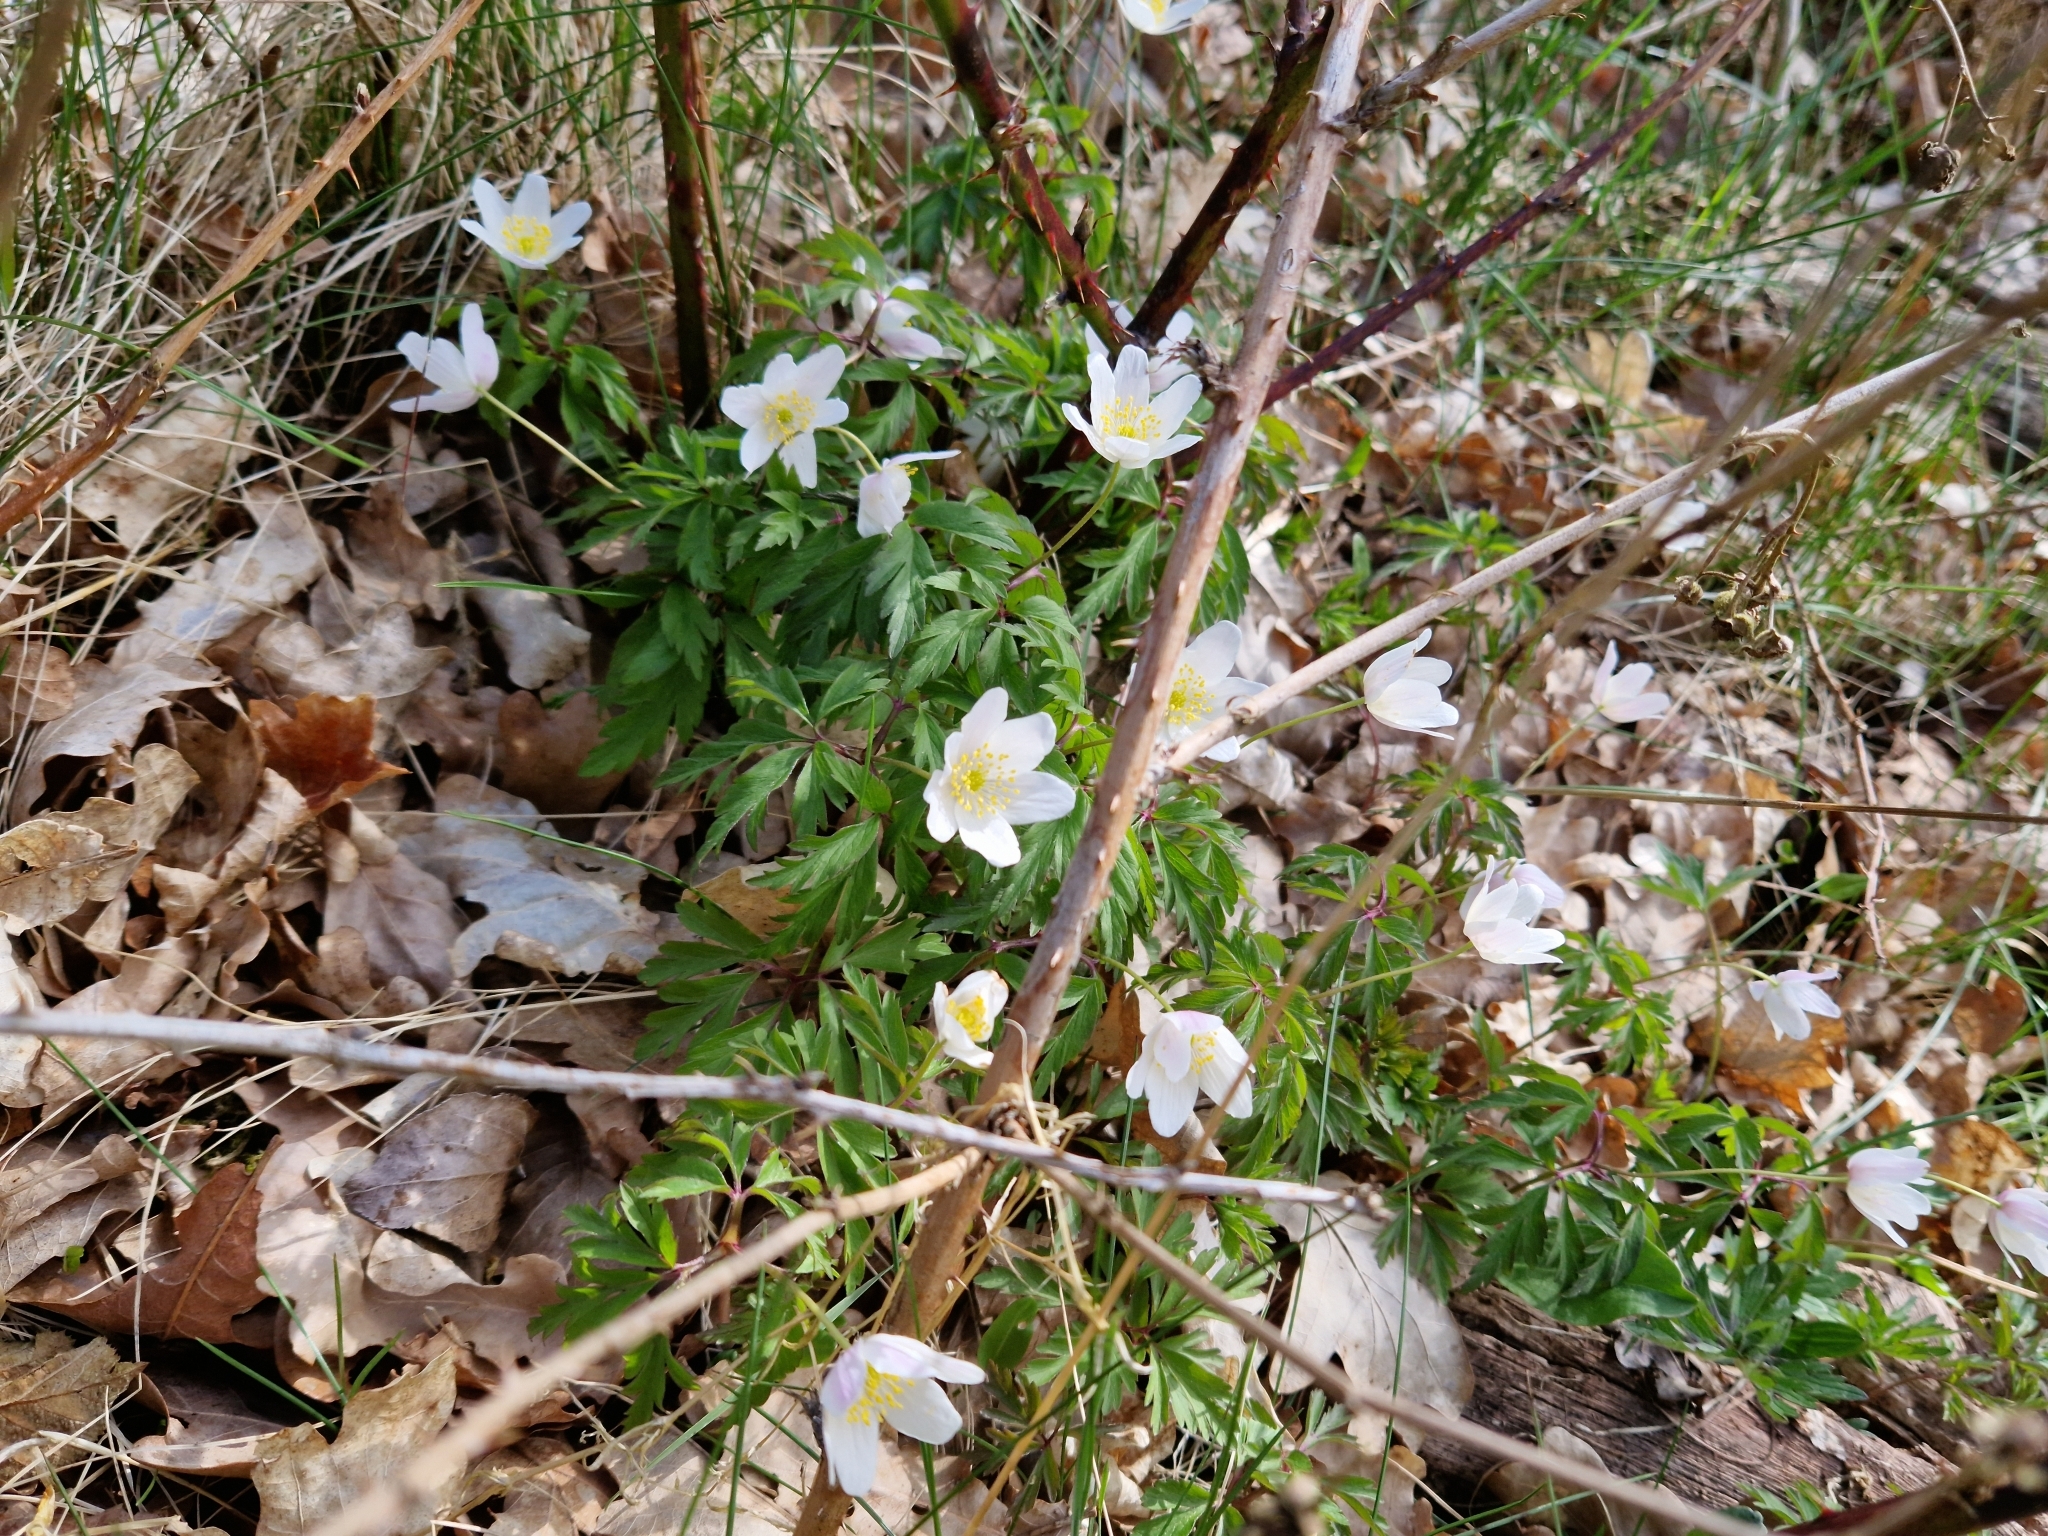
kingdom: Plantae
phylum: Tracheophyta
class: Magnoliopsida
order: Ranunculales
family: Ranunculaceae
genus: Anemone
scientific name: Anemone nemorosa
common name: Wood anemone
